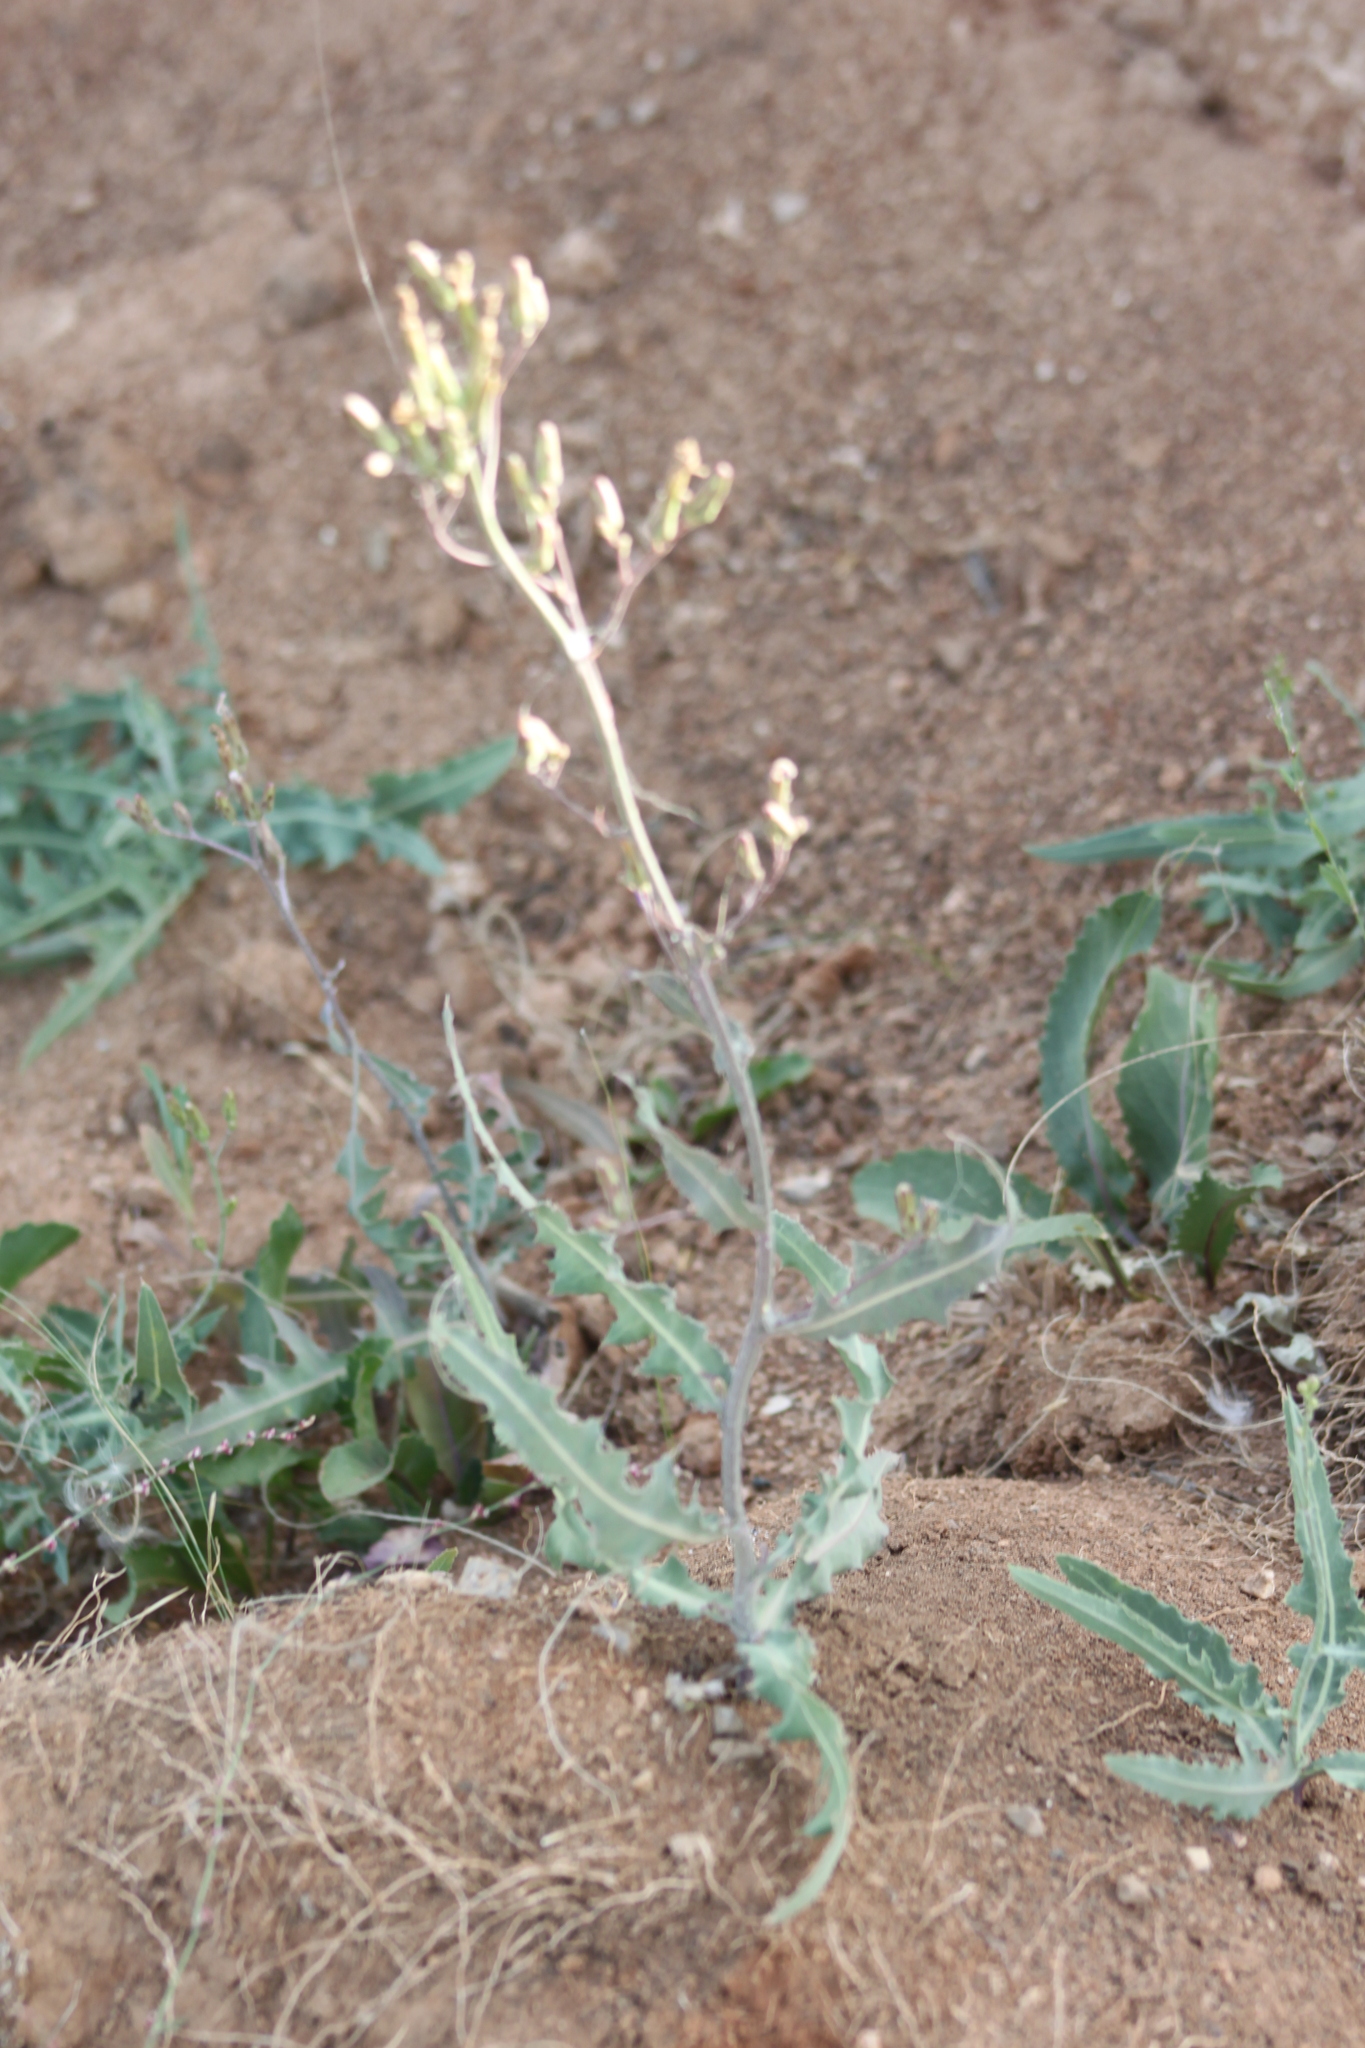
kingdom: Plantae
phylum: Tracheophyta
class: Magnoliopsida
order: Asterales
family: Asteraceae
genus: Lactuca
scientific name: Lactuca tatarica
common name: Blue lettuce
